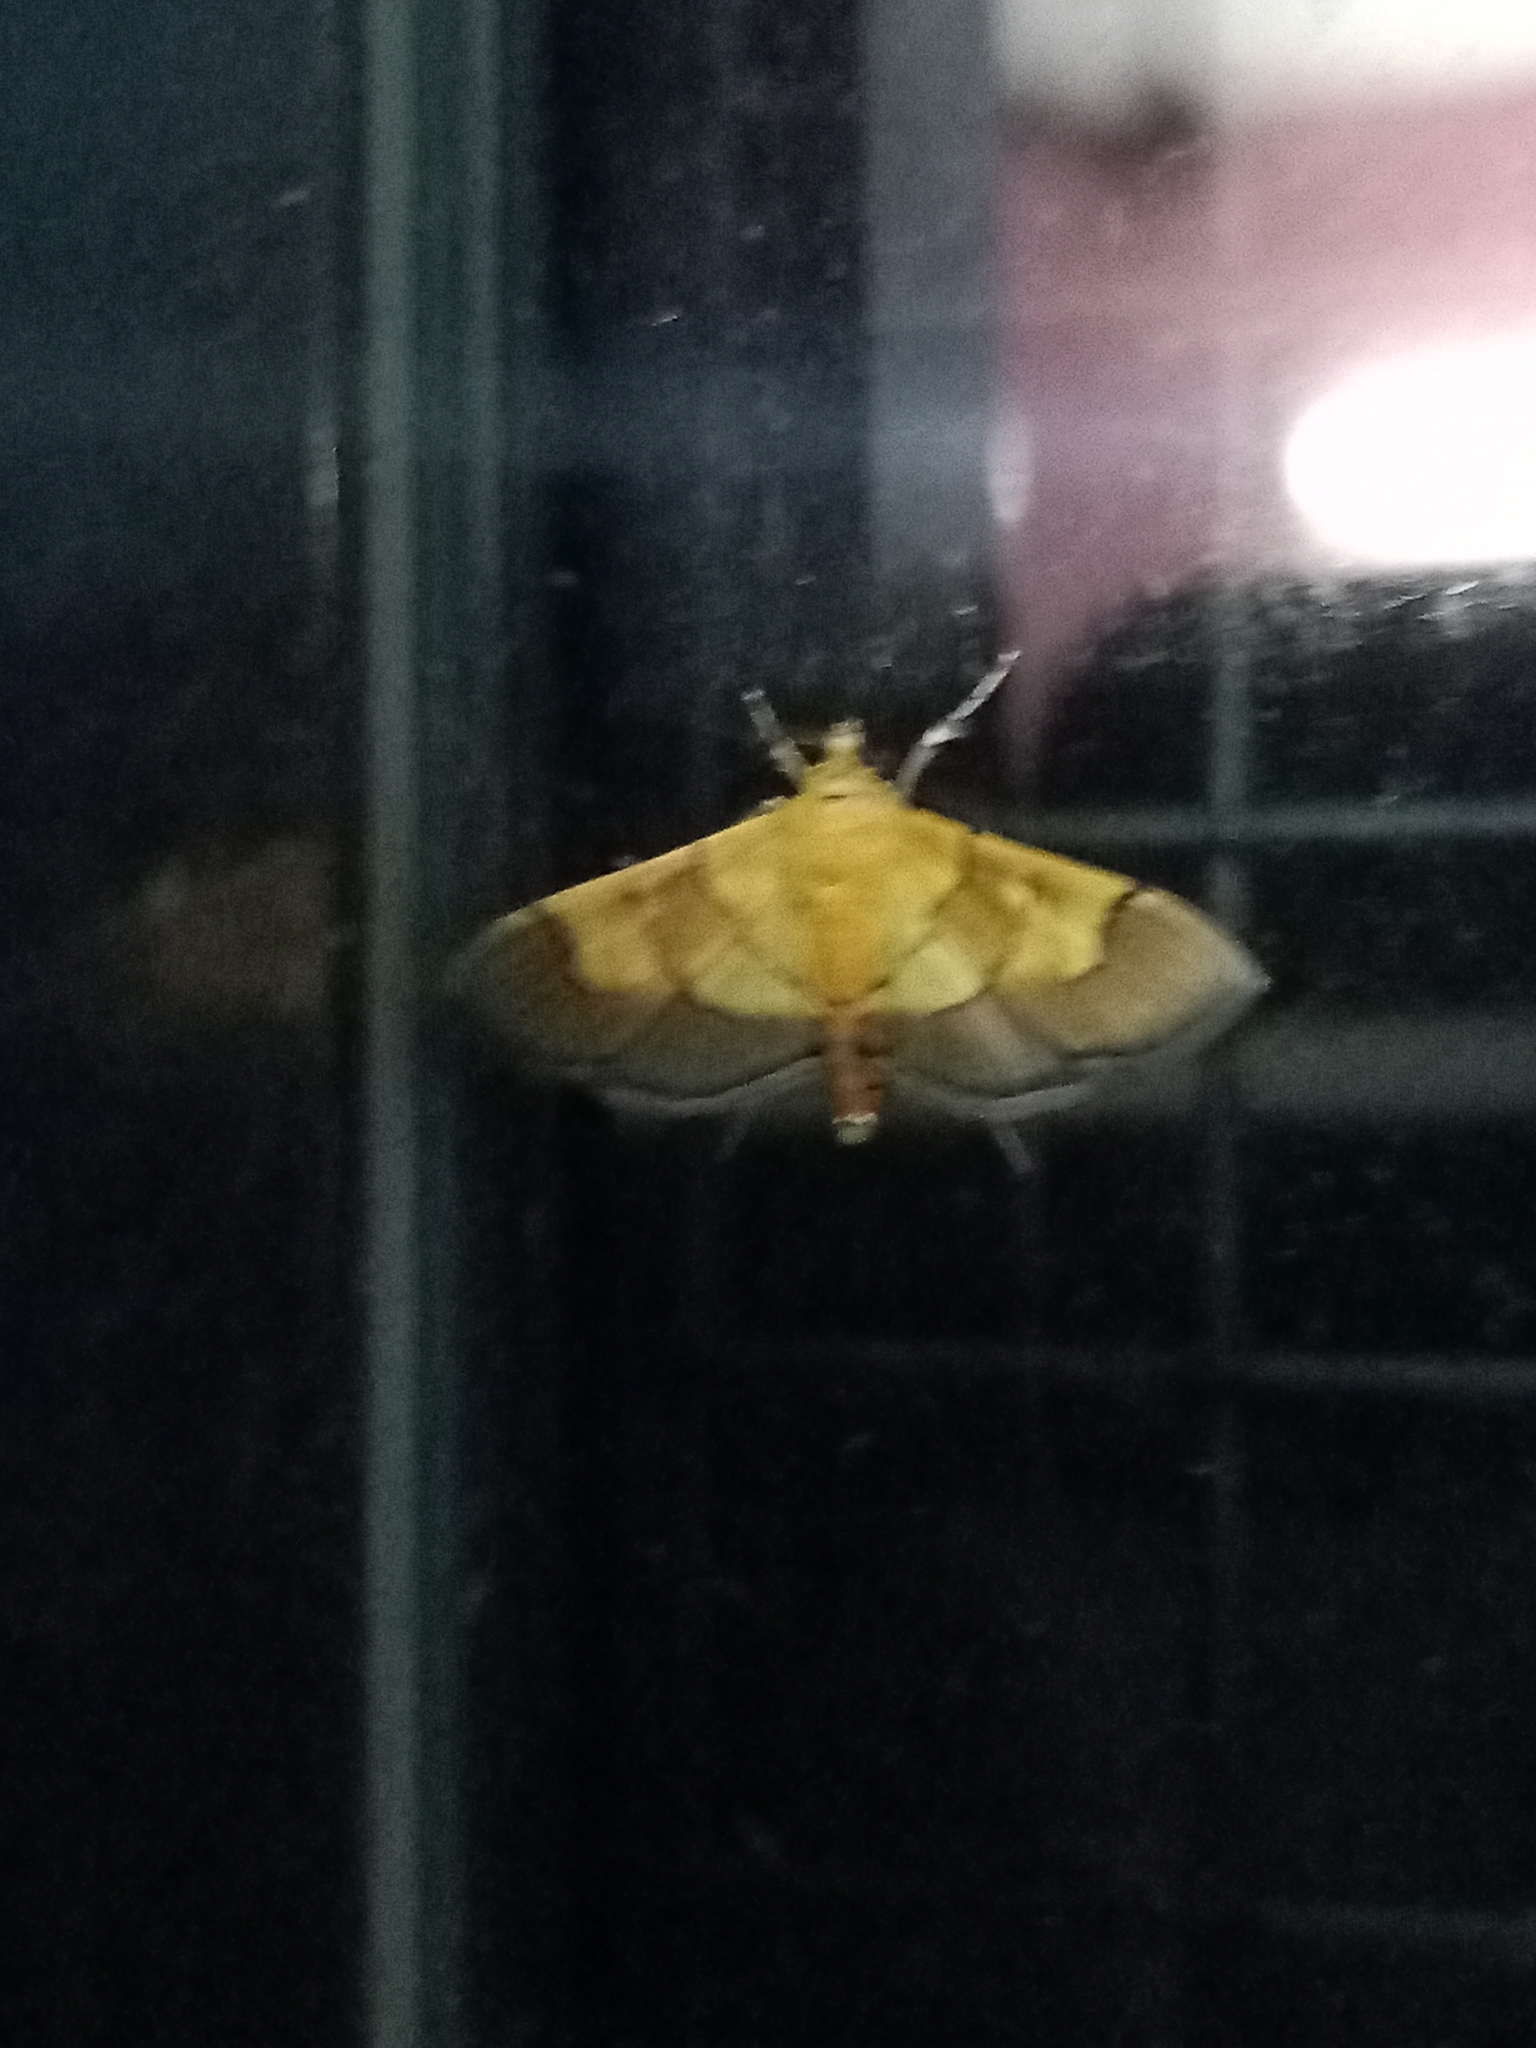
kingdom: Animalia
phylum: Arthropoda
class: Insecta
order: Lepidoptera
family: Crambidae
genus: Syngamia
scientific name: Syngamia latimarginalis
